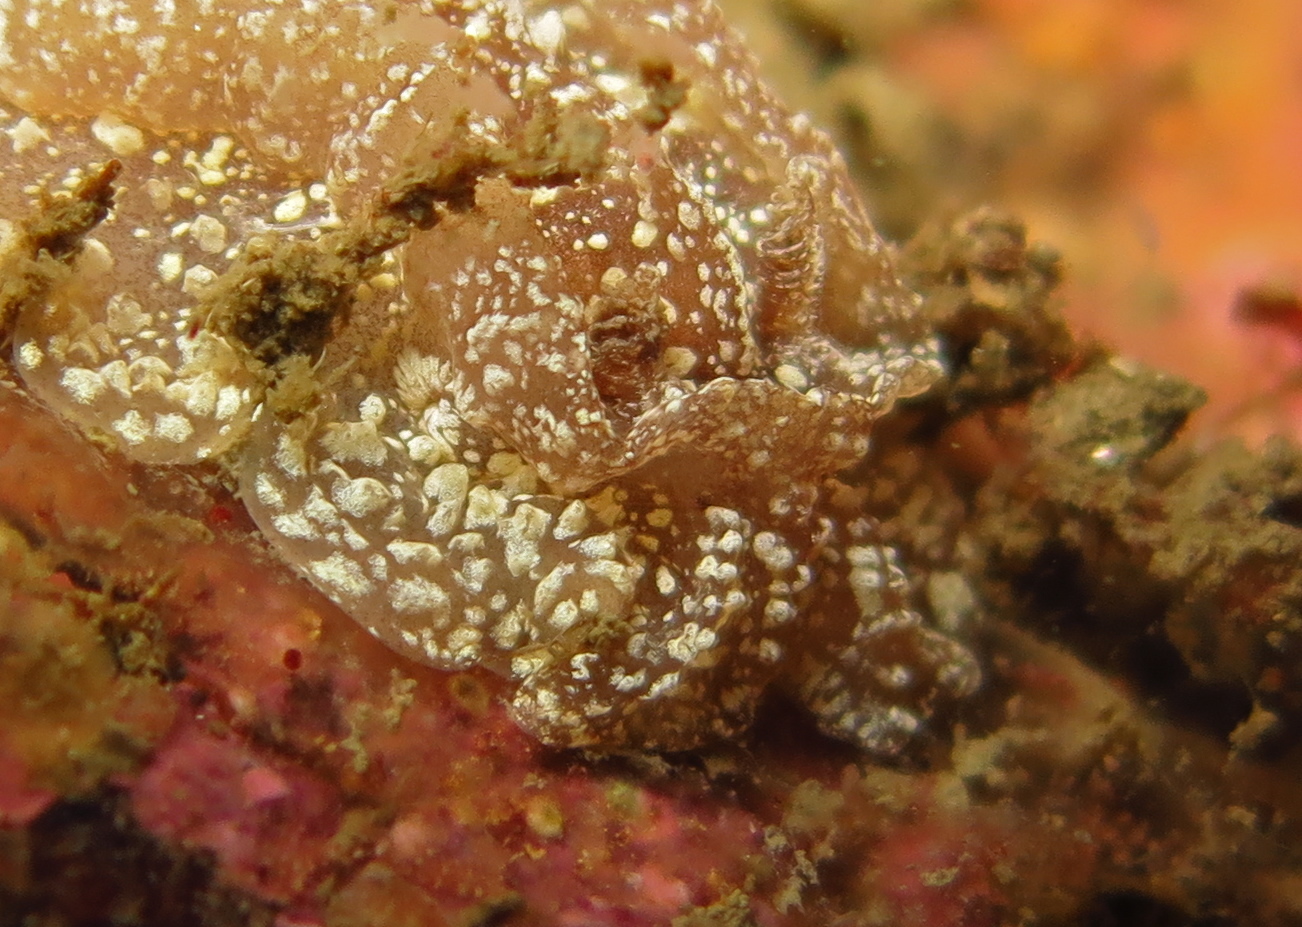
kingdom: Animalia
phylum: Mollusca
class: Gastropoda
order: Nudibranchia
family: Goniodorididae
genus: Pelagella
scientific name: Pelagella castanea
